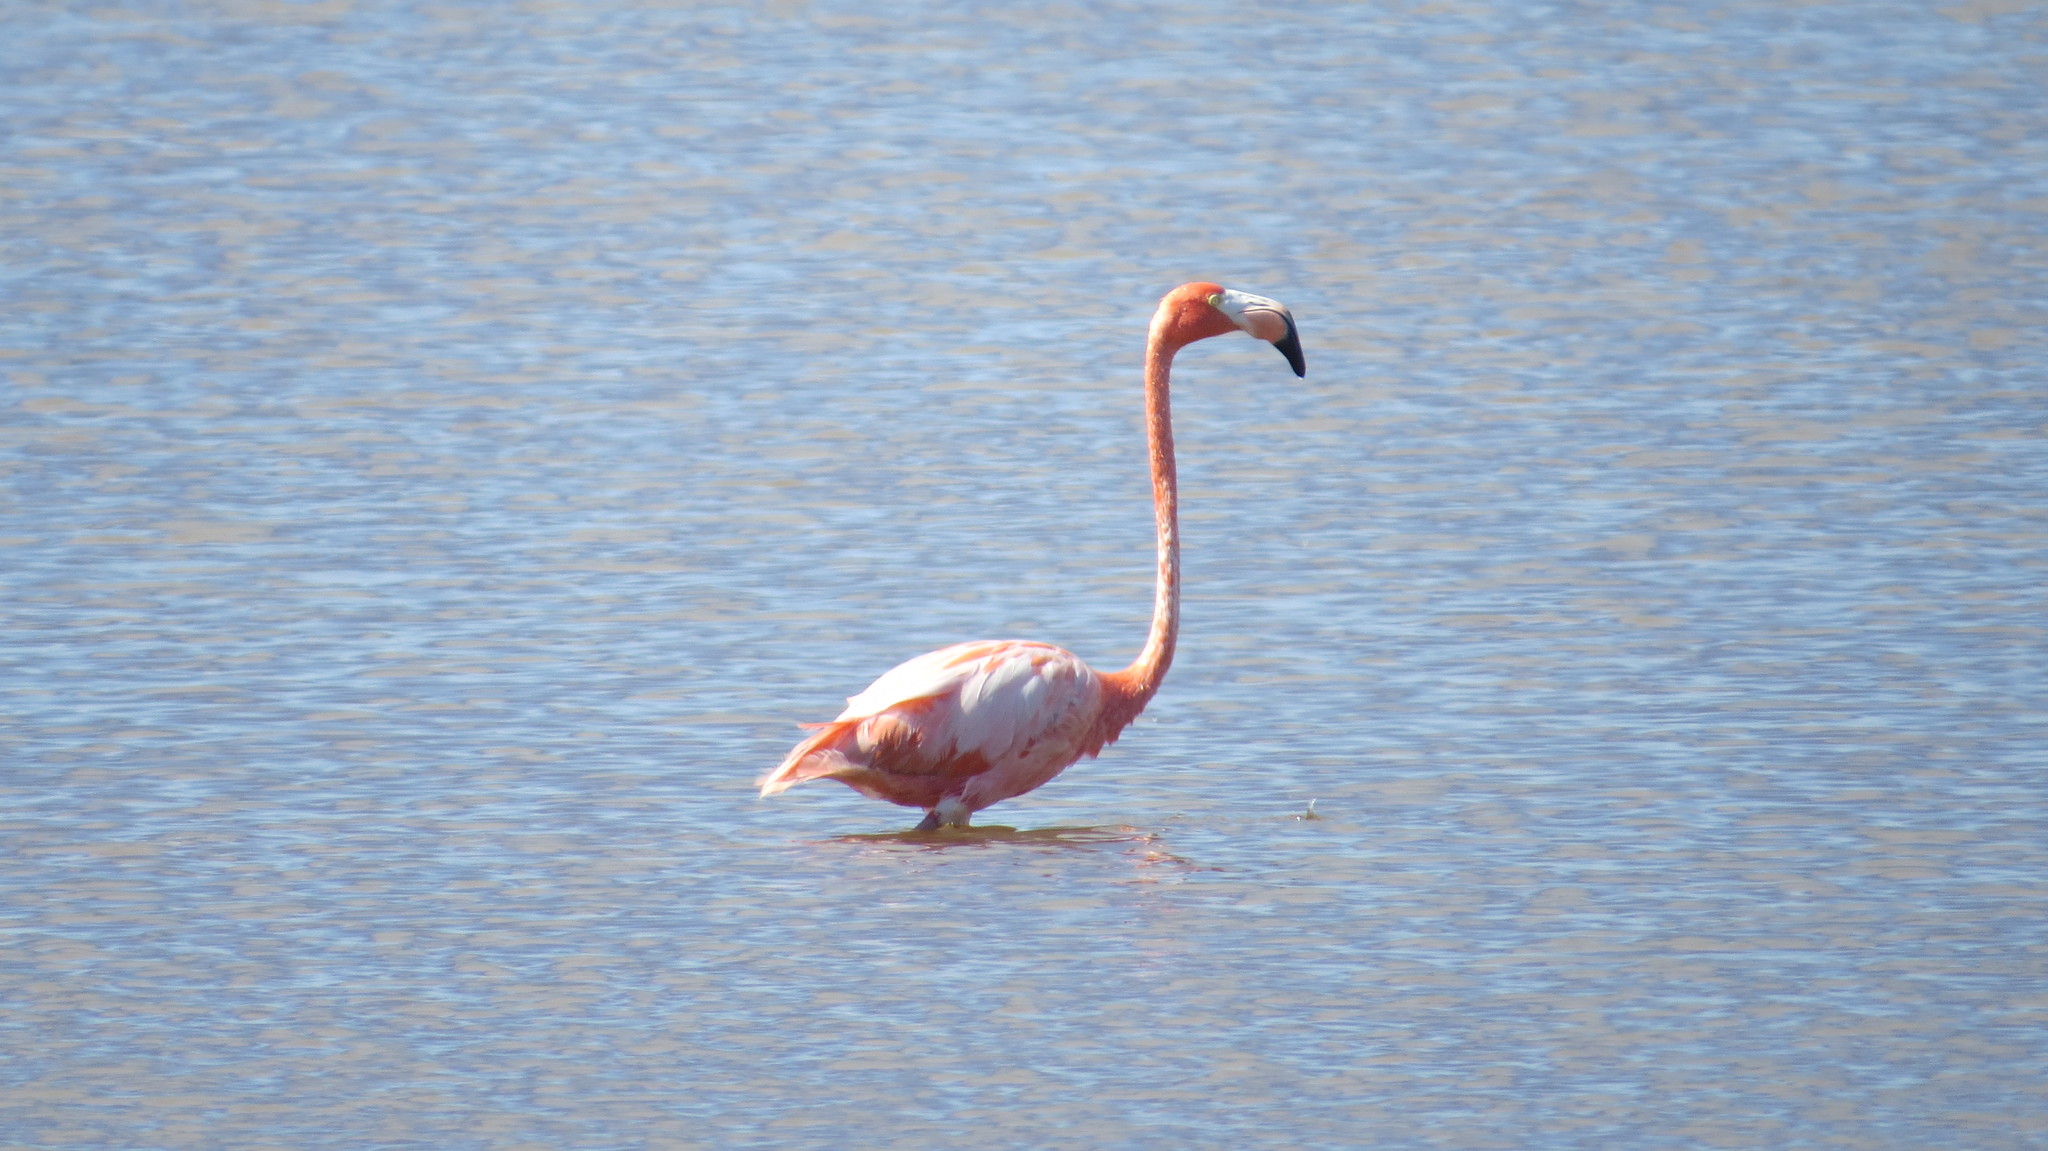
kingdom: Animalia
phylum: Chordata
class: Aves
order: Phoenicopteriformes
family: Phoenicopteridae
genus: Phoenicopterus
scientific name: Phoenicopterus ruber
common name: American flamingo
